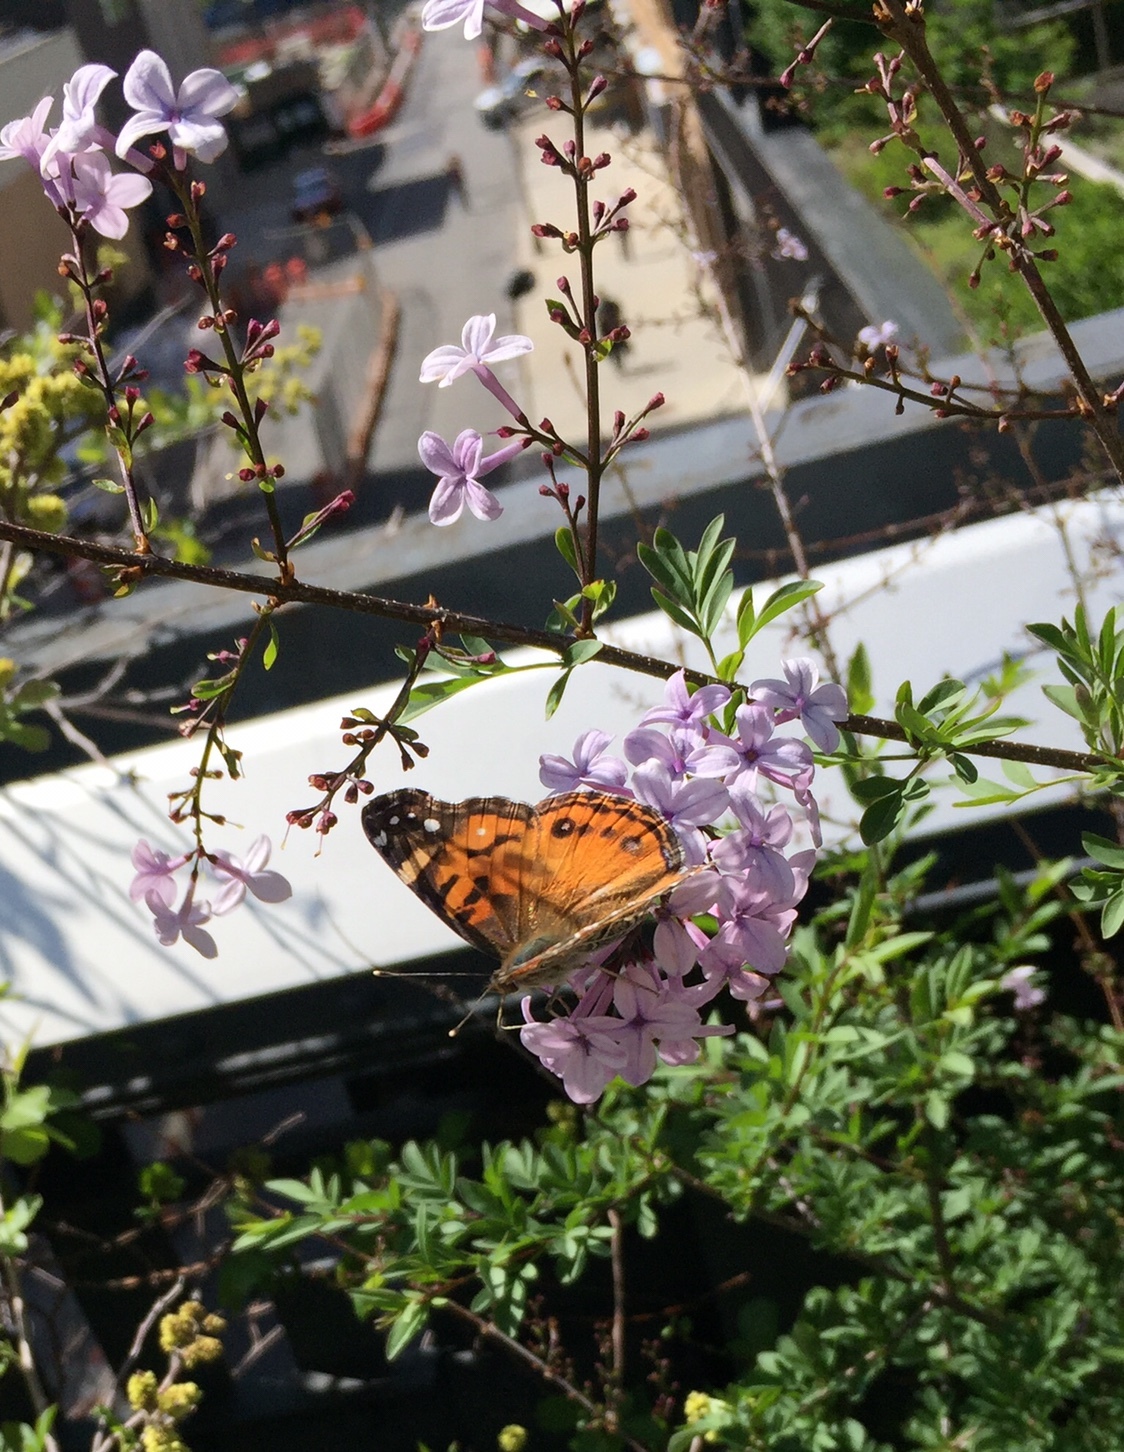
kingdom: Animalia
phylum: Arthropoda
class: Insecta
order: Lepidoptera
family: Nymphalidae
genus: Vanessa
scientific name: Vanessa virginiensis
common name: American lady
